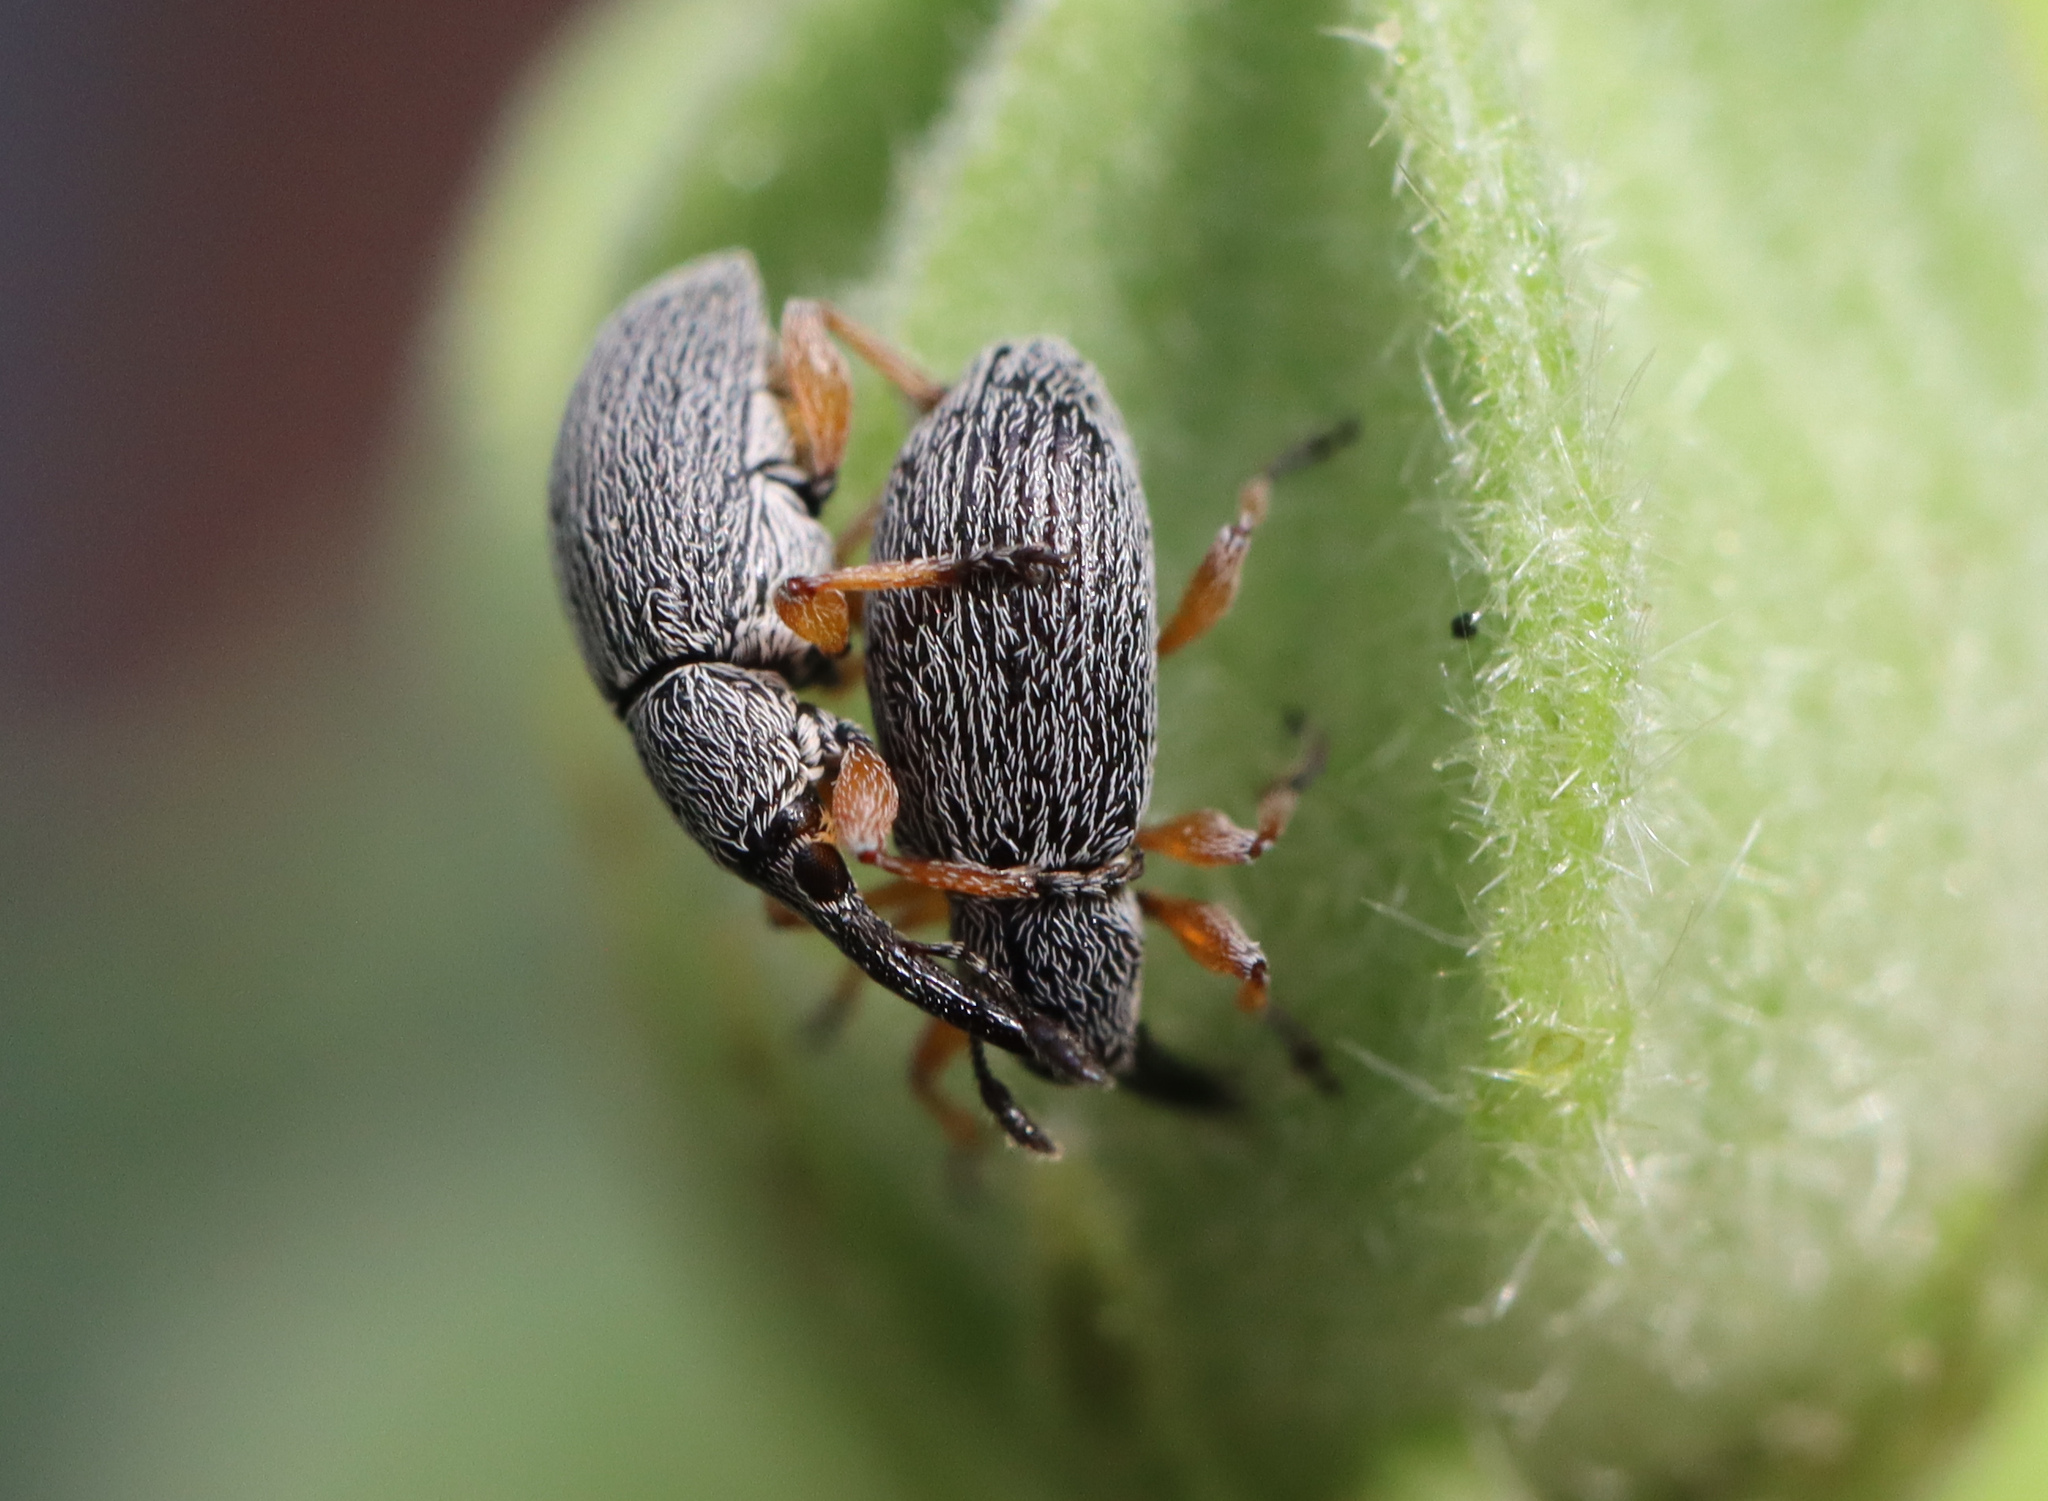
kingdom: Animalia
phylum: Arthropoda
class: Insecta
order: Coleoptera
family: Brentidae
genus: Rhopalapion
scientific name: Rhopalapion longirostre
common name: Hollyhock weevil
